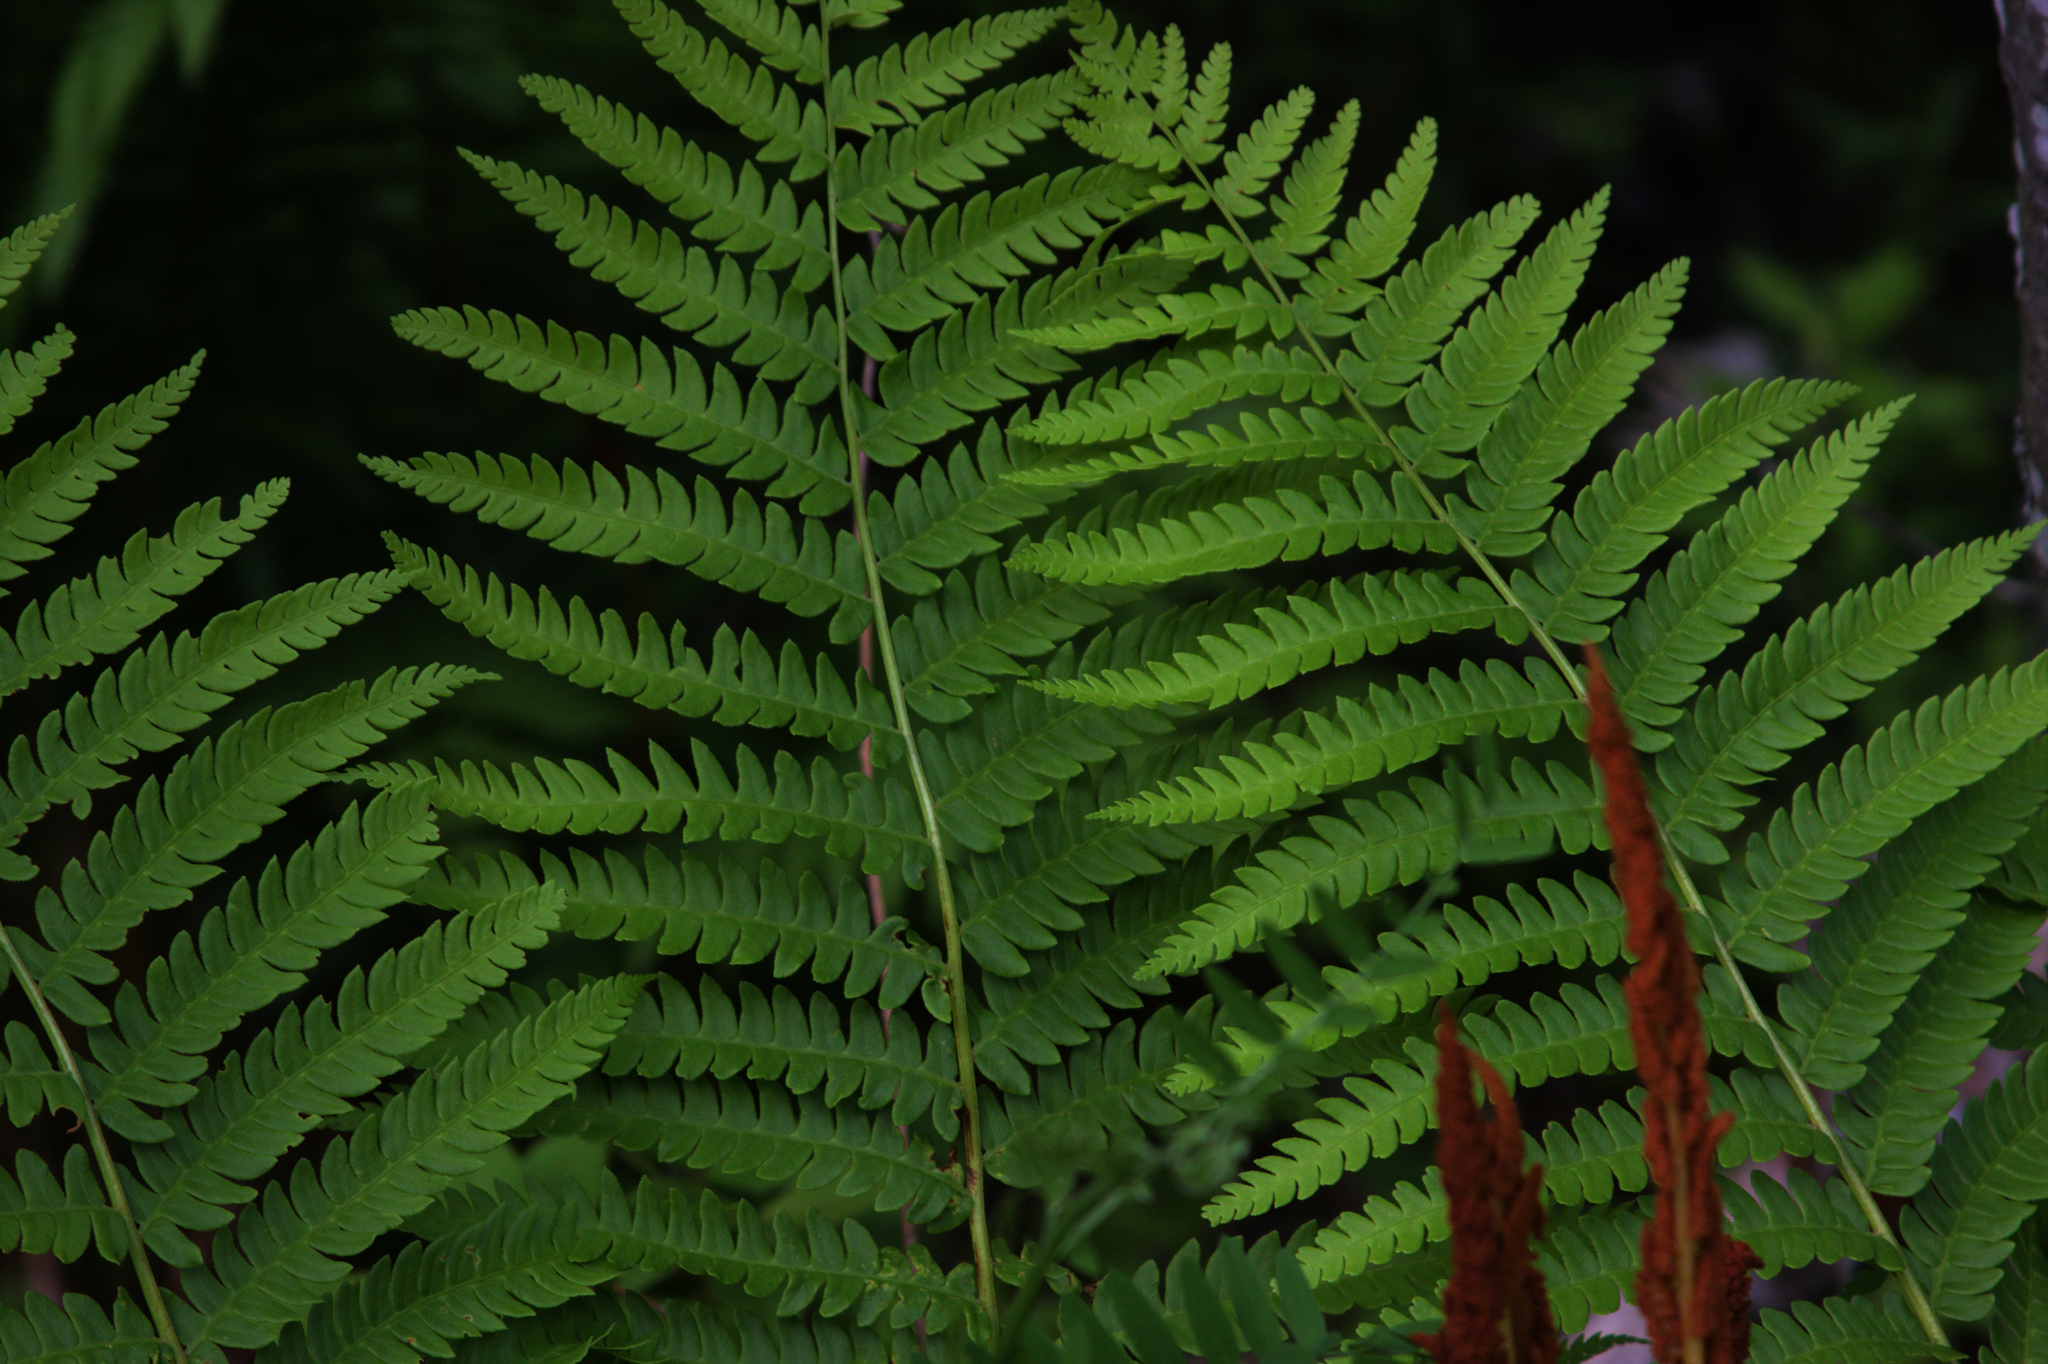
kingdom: Plantae
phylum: Tracheophyta
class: Polypodiopsida
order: Osmundales
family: Osmundaceae
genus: Osmundastrum
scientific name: Osmundastrum cinnamomeum
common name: Cinnamon fern
